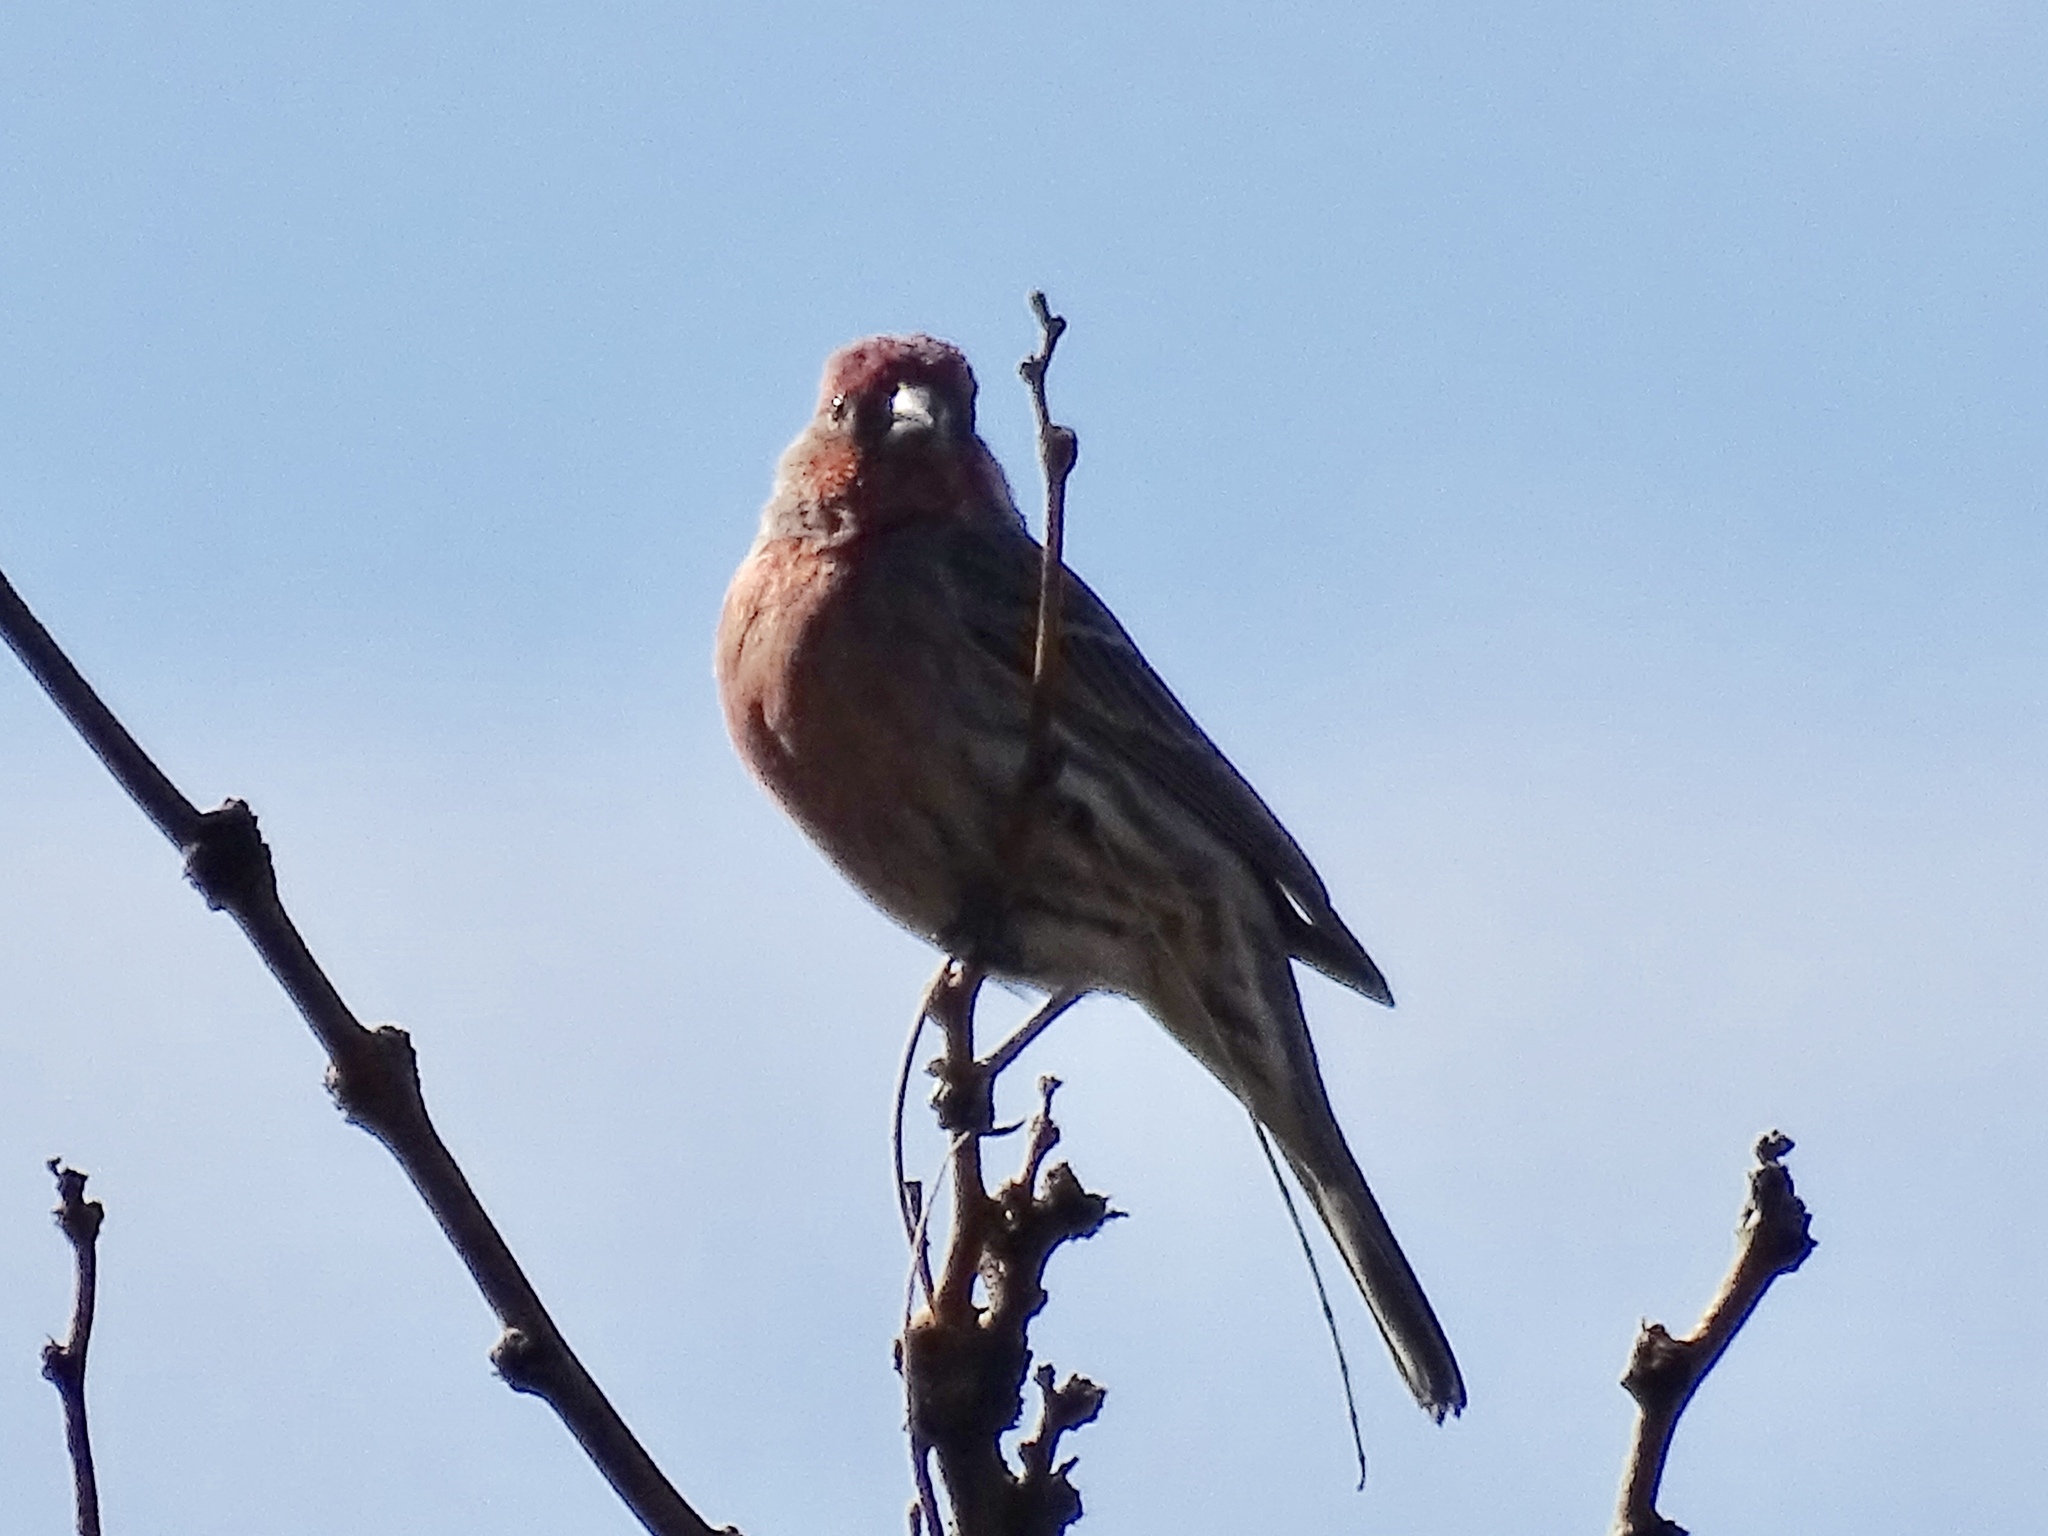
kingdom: Animalia
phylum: Chordata
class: Aves
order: Passeriformes
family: Fringillidae
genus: Haemorhous
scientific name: Haemorhous mexicanus
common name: House finch
